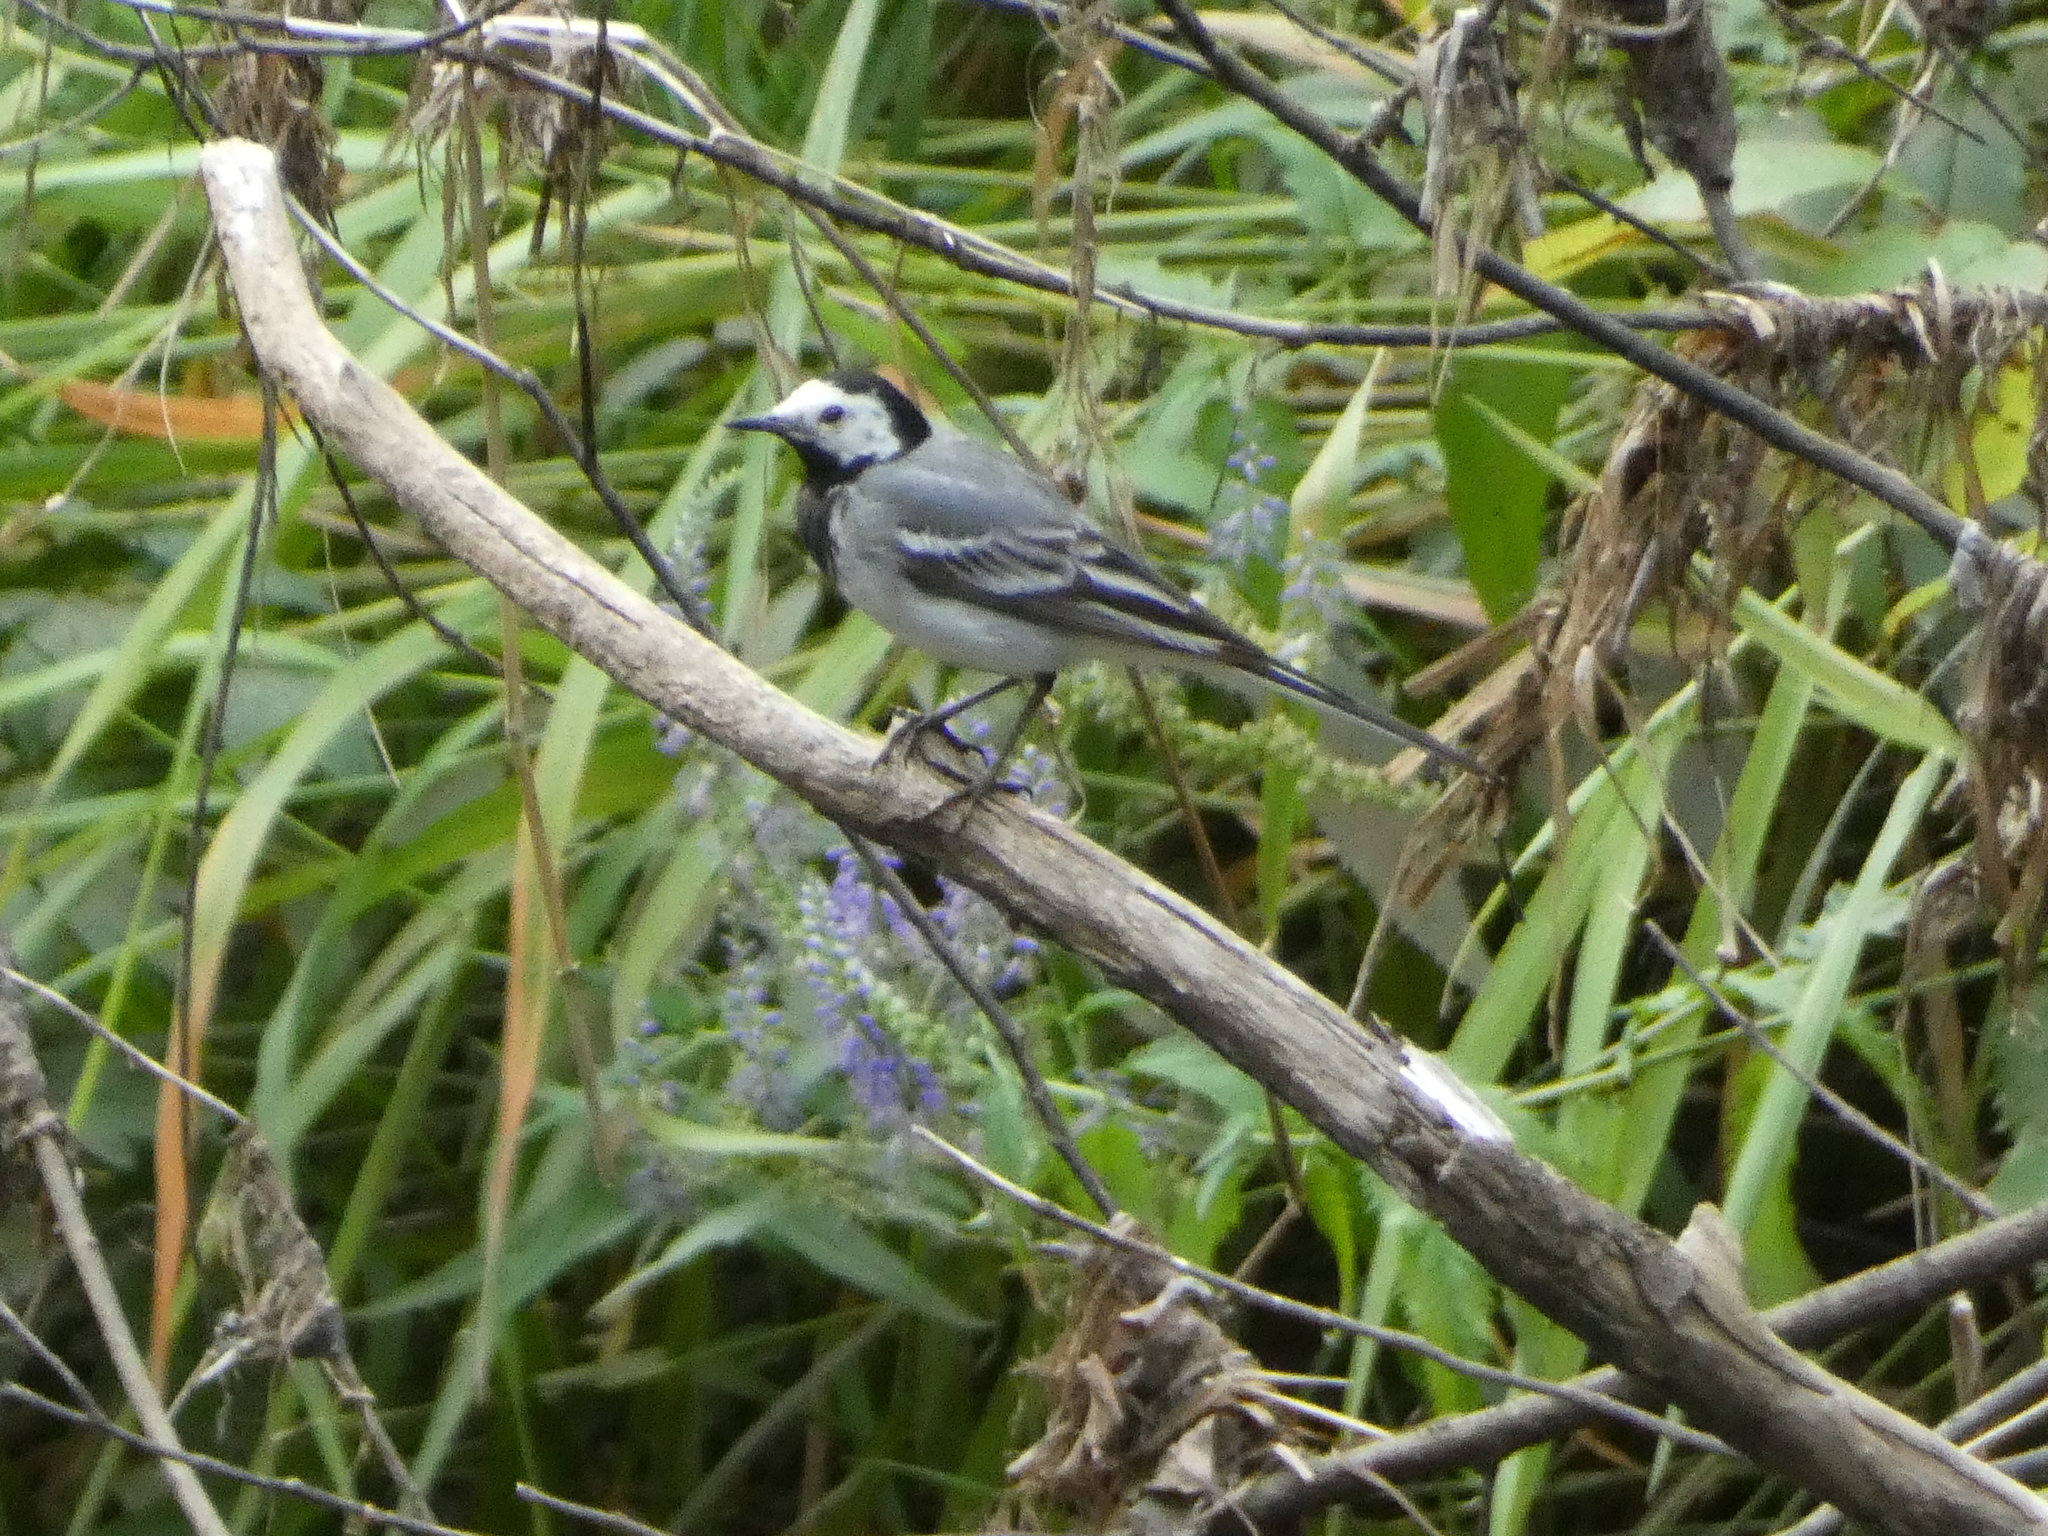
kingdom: Animalia
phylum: Chordata
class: Aves
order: Passeriformes
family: Motacillidae
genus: Motacilla
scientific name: Motacilla alba
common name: White wagtail
